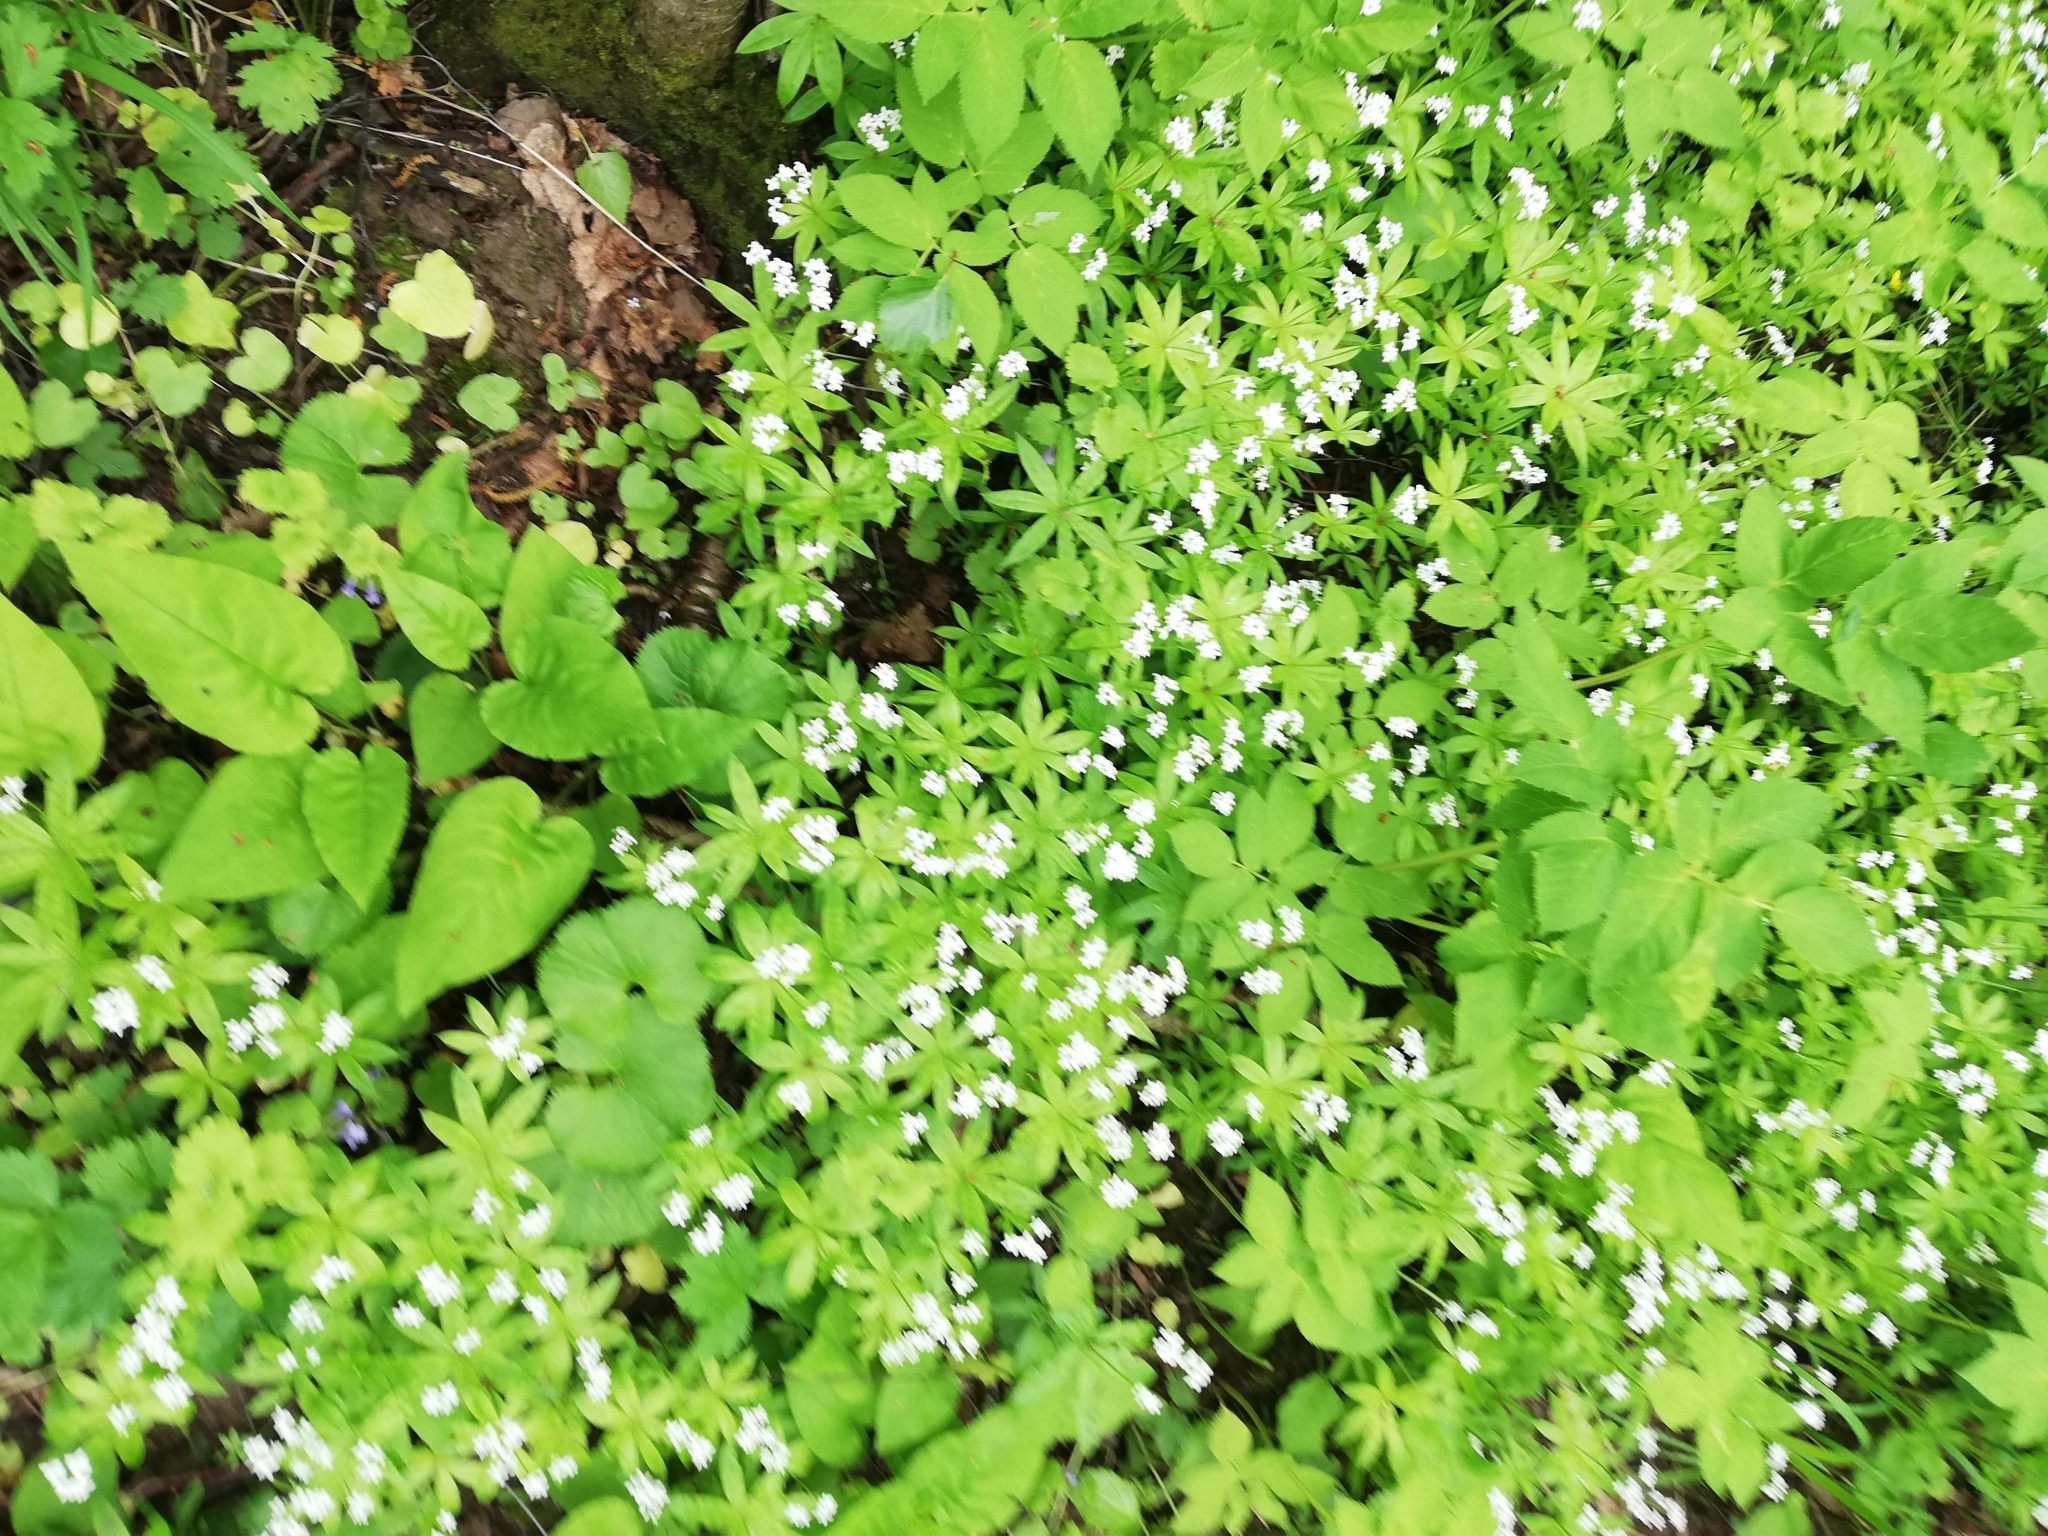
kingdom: Plantae
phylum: Tracheophyta
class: Magnoliopsida
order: Gentianales
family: Rubiaceae
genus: Galium
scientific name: Galium odoratum
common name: Sweet woodruff
